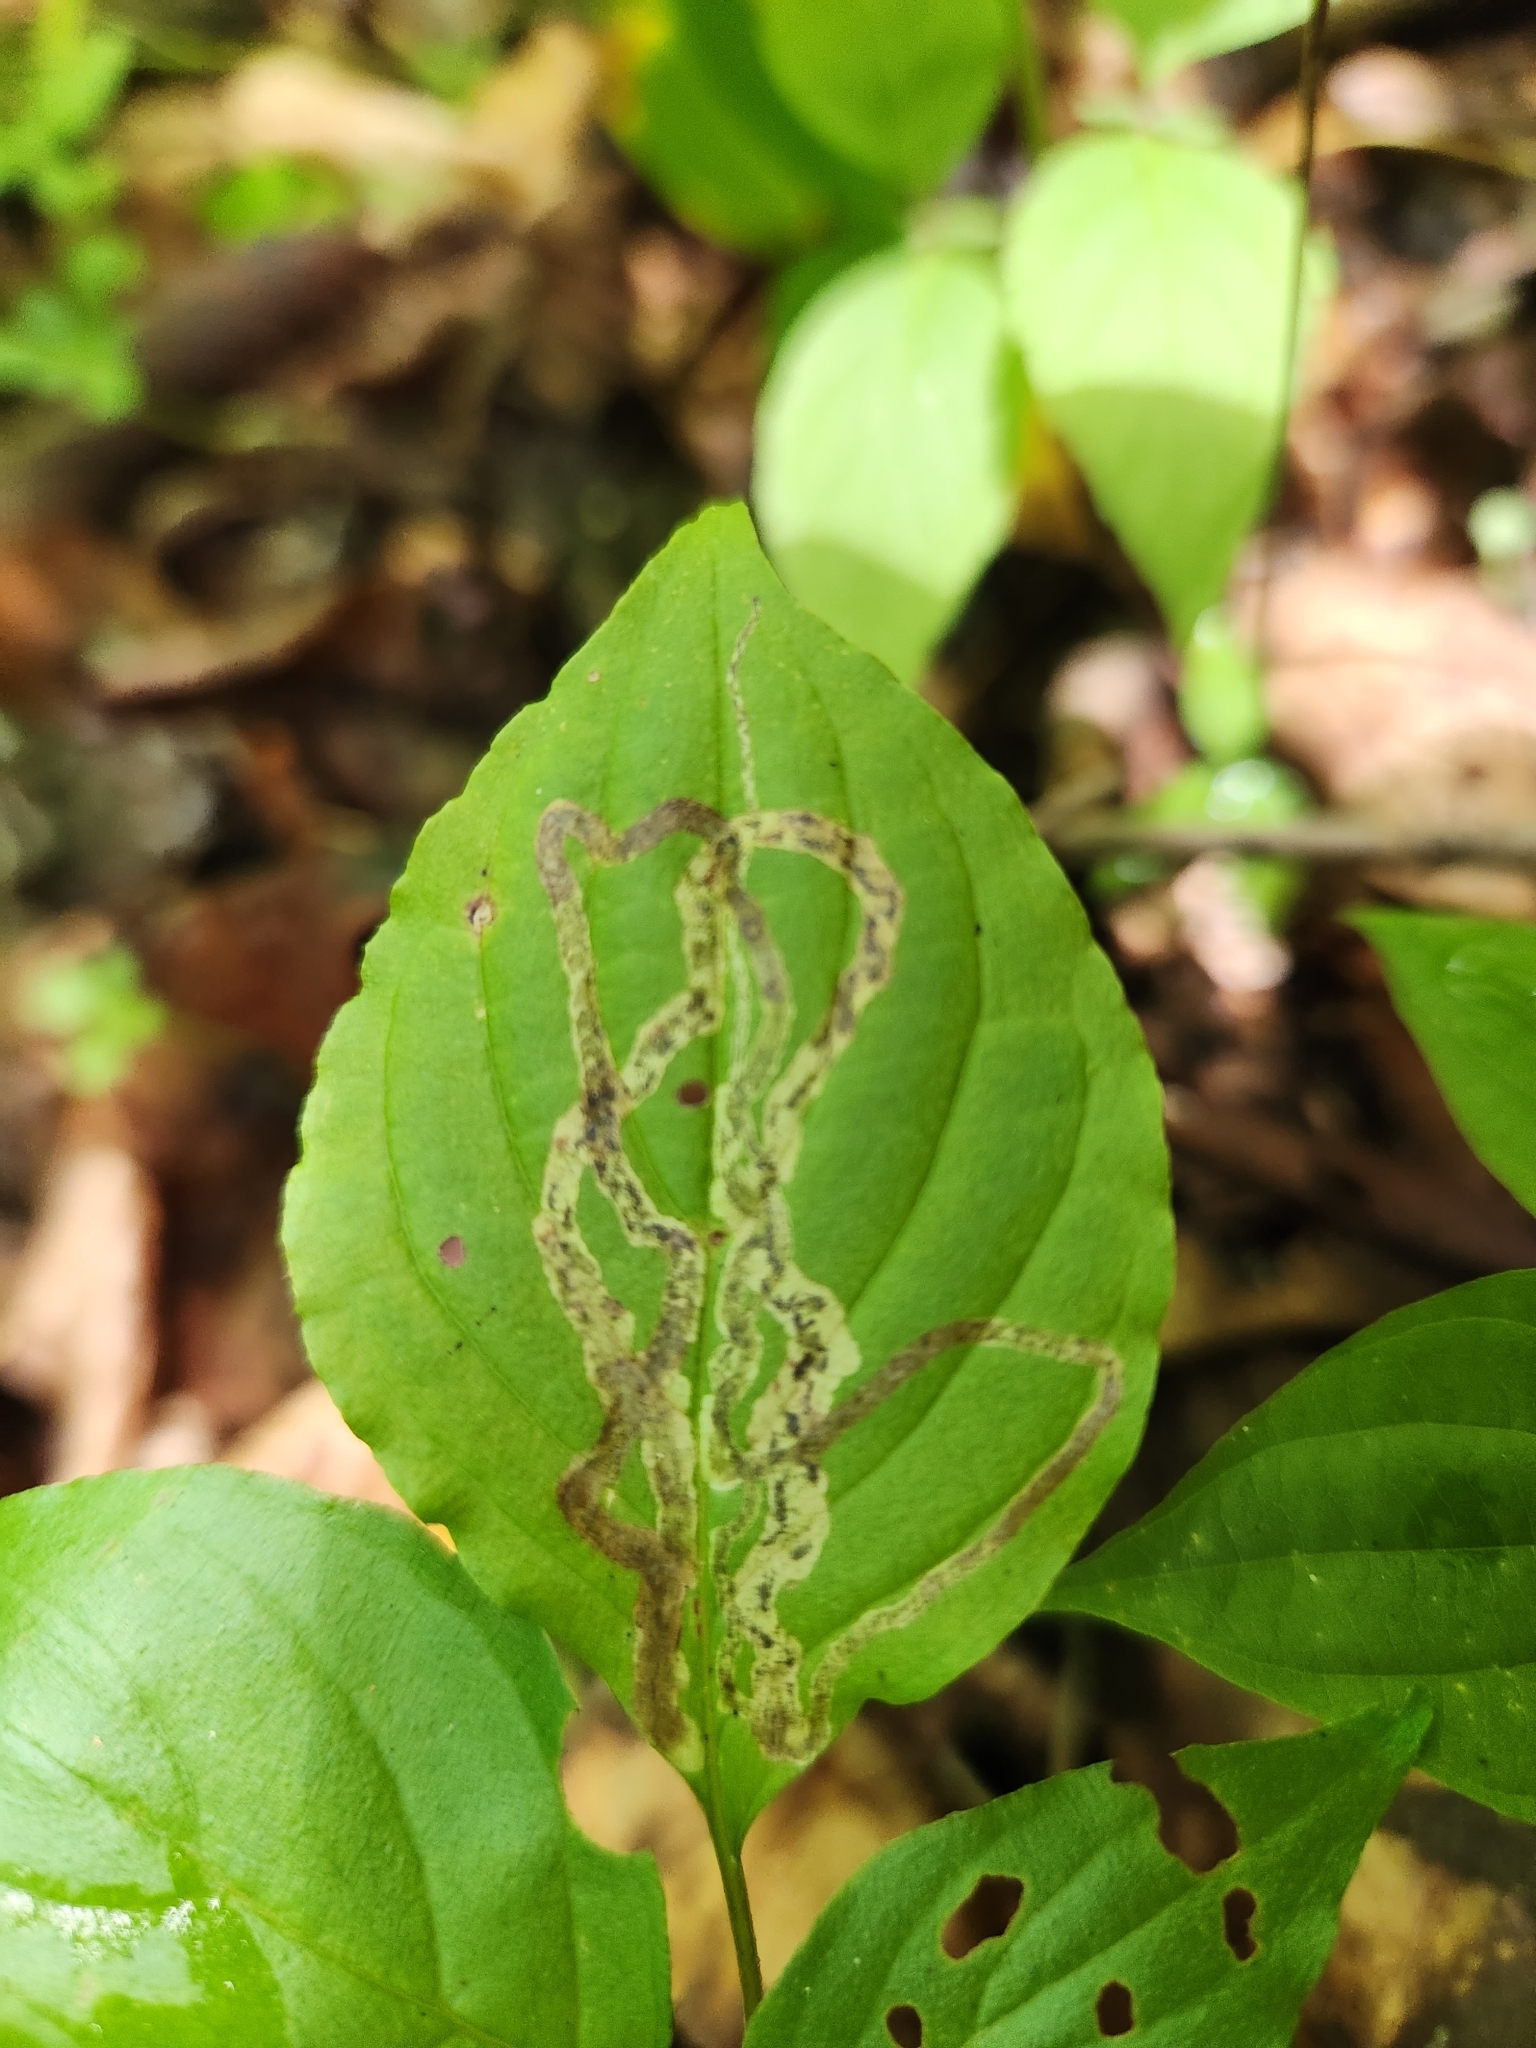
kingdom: Animalia
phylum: Arthropoda
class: Insecta
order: Diptera
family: Agromyzidae
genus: Phytomyza
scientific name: Phytomyza agromyzina
